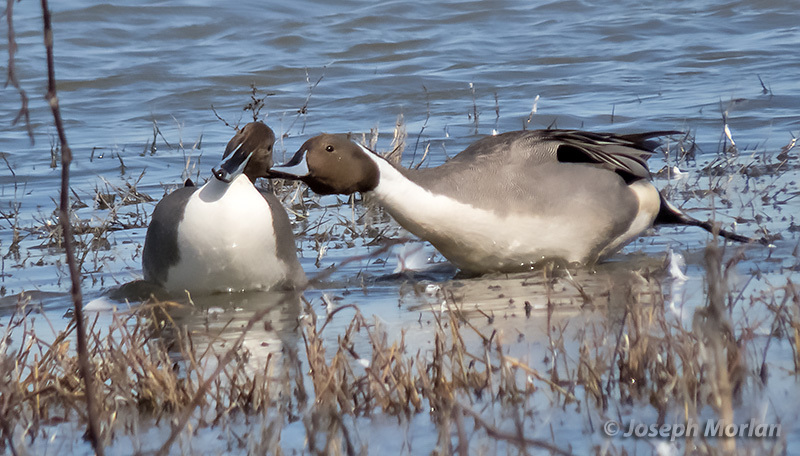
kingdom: Animalia
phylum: Chordata
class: Aves
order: Anseriformes
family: Anatidae
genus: Anas
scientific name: Anas acuta
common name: Northern pintail
